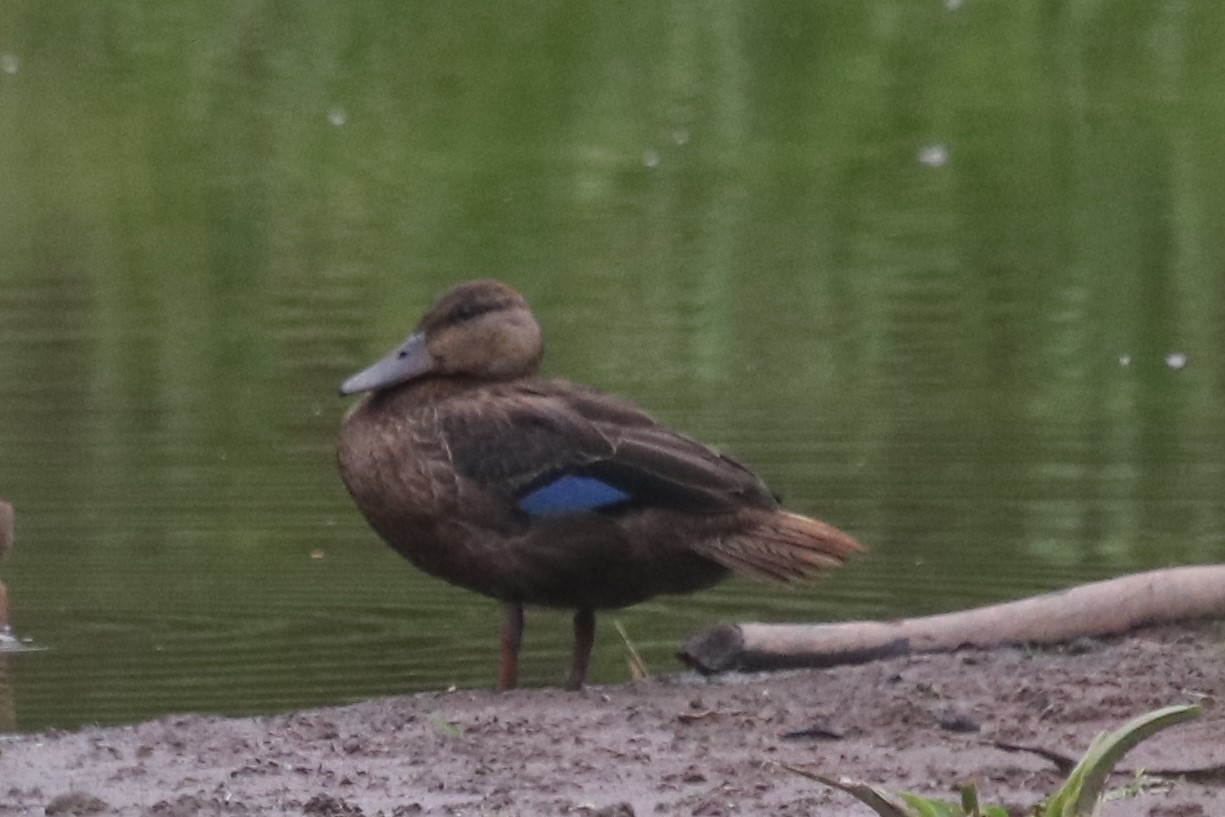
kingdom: Animalia
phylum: Chordata
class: Aves
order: Anseriformes
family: Anatidae
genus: Anas
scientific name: Anas rubripes
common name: American black duck
